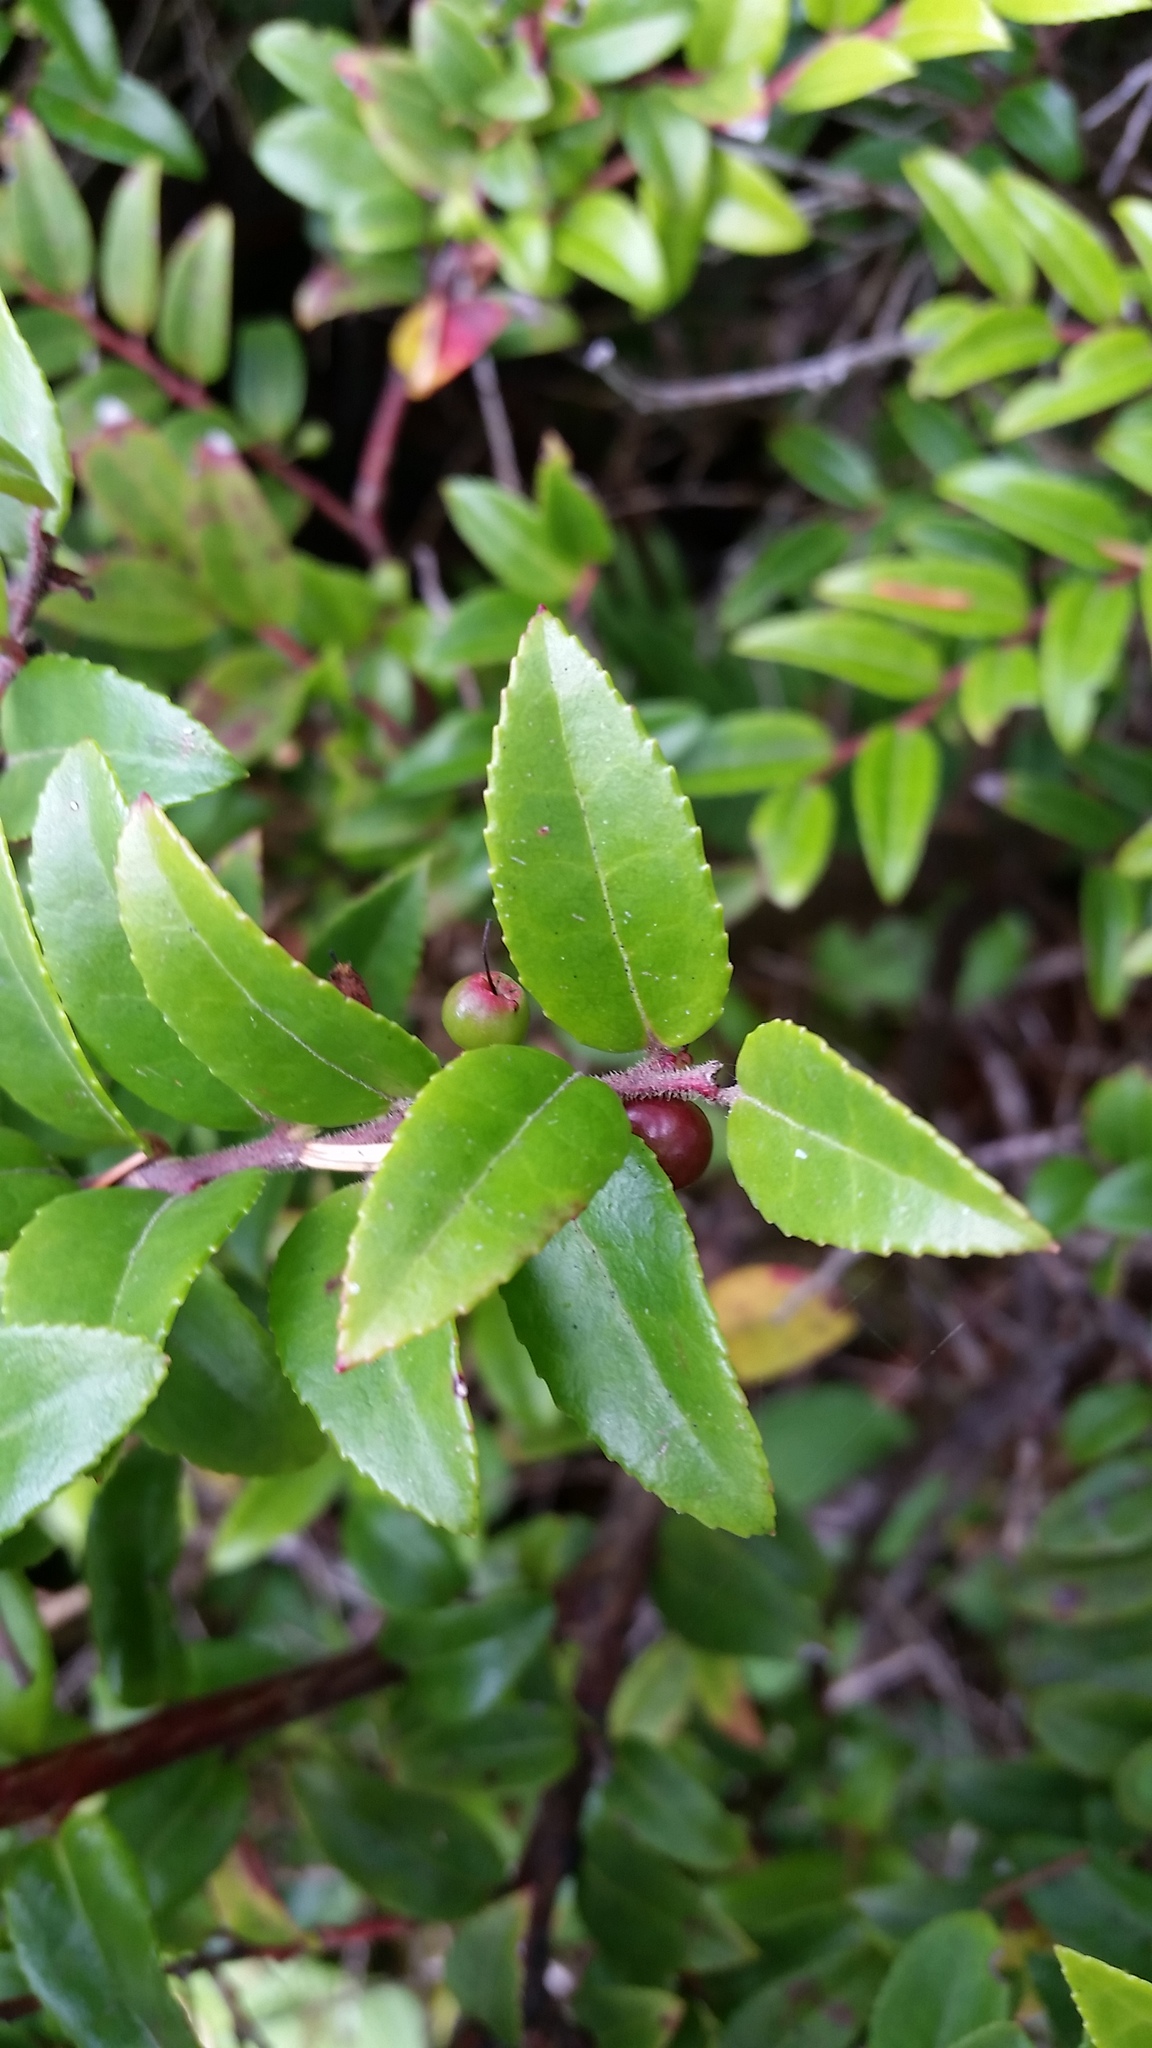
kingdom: Plantae
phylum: Tracheophyta
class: Magnoliopsida
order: Ericales
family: Ericaceae
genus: Vaccinium
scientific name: Vaccinium ovatum
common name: California-huckleberry
